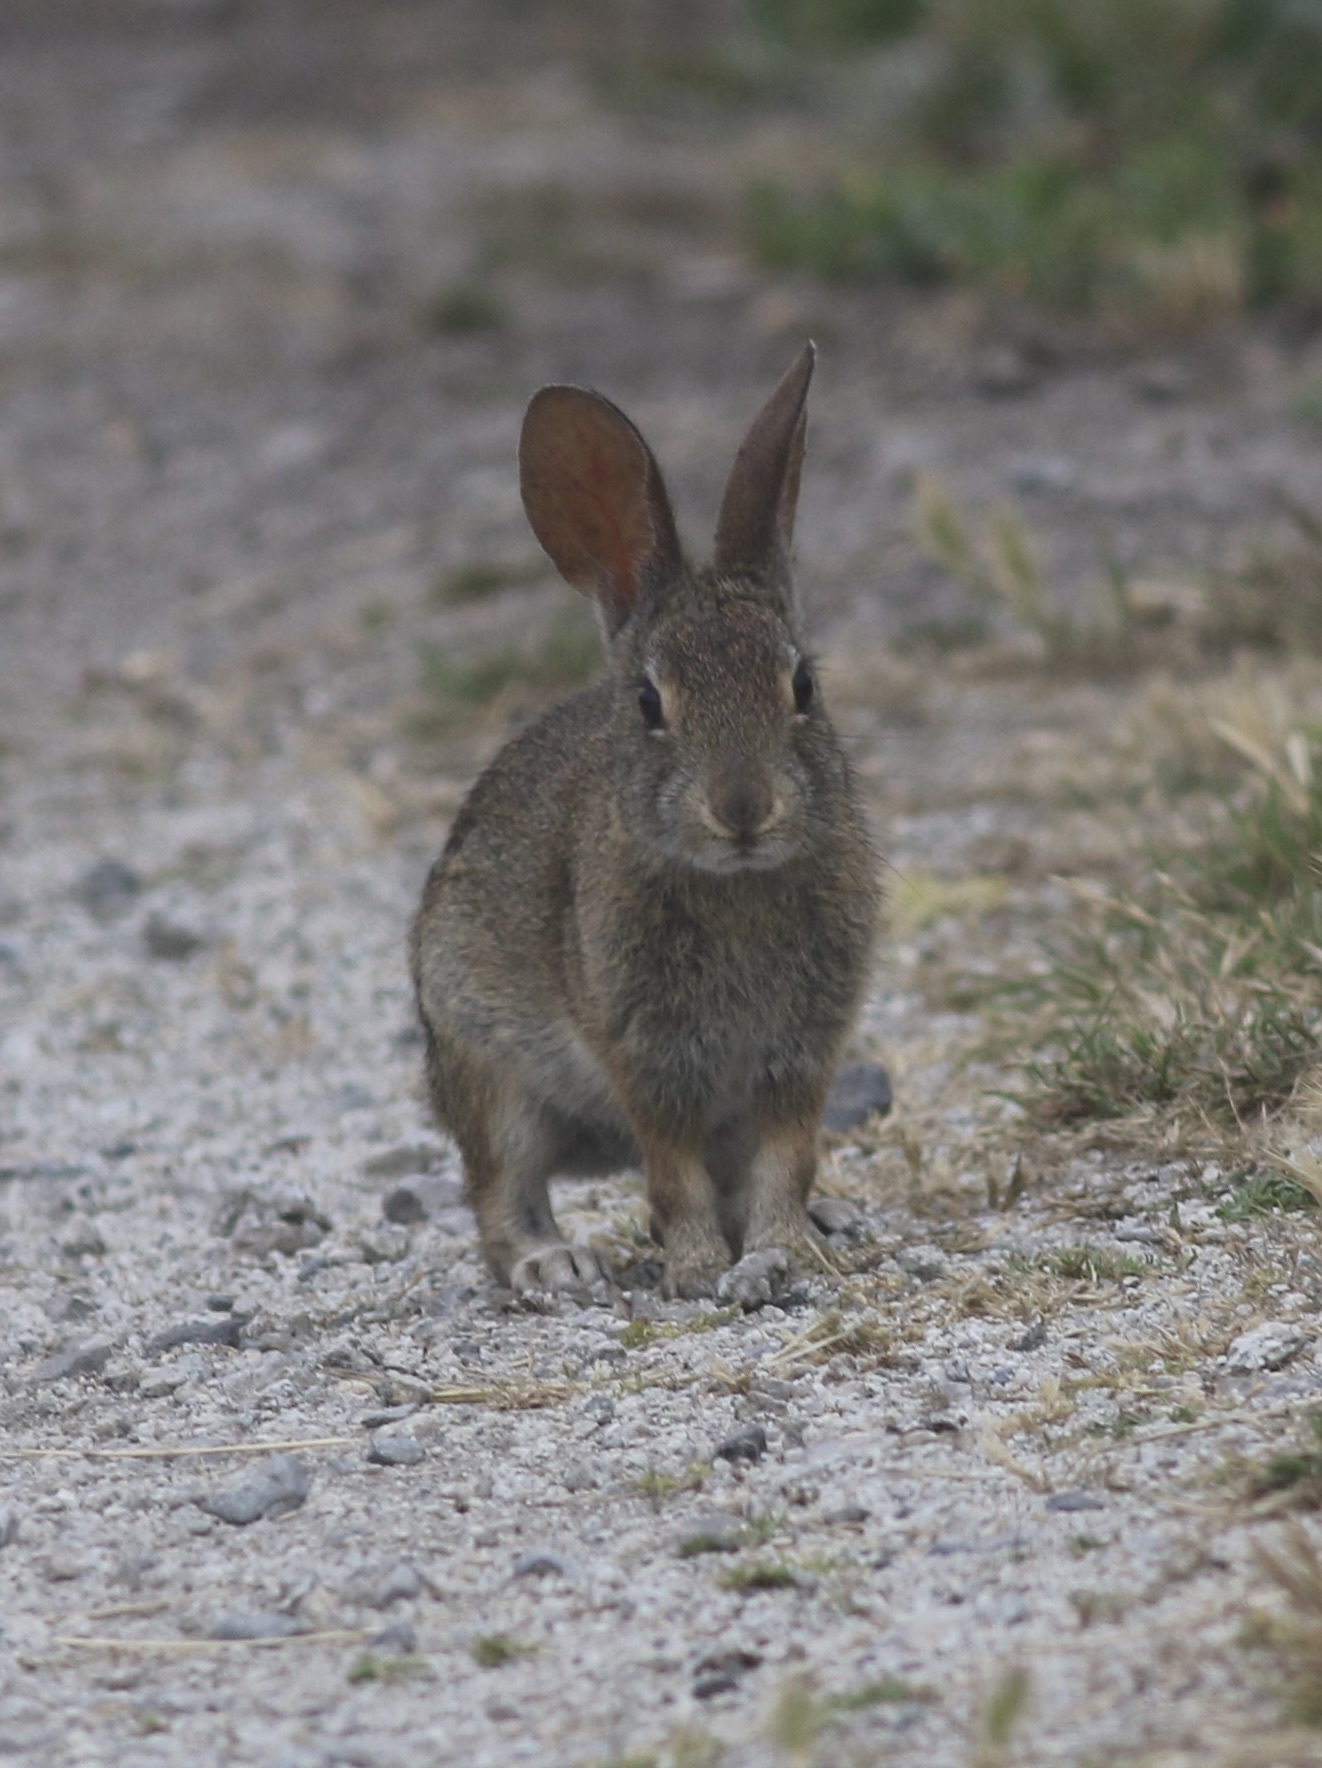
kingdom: Animalia
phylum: Chordata
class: Mammalia
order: Lagomorpha
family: Leporidae
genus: Sylvilagus
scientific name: Sylvilagus bachmani
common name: Brush rabbit
